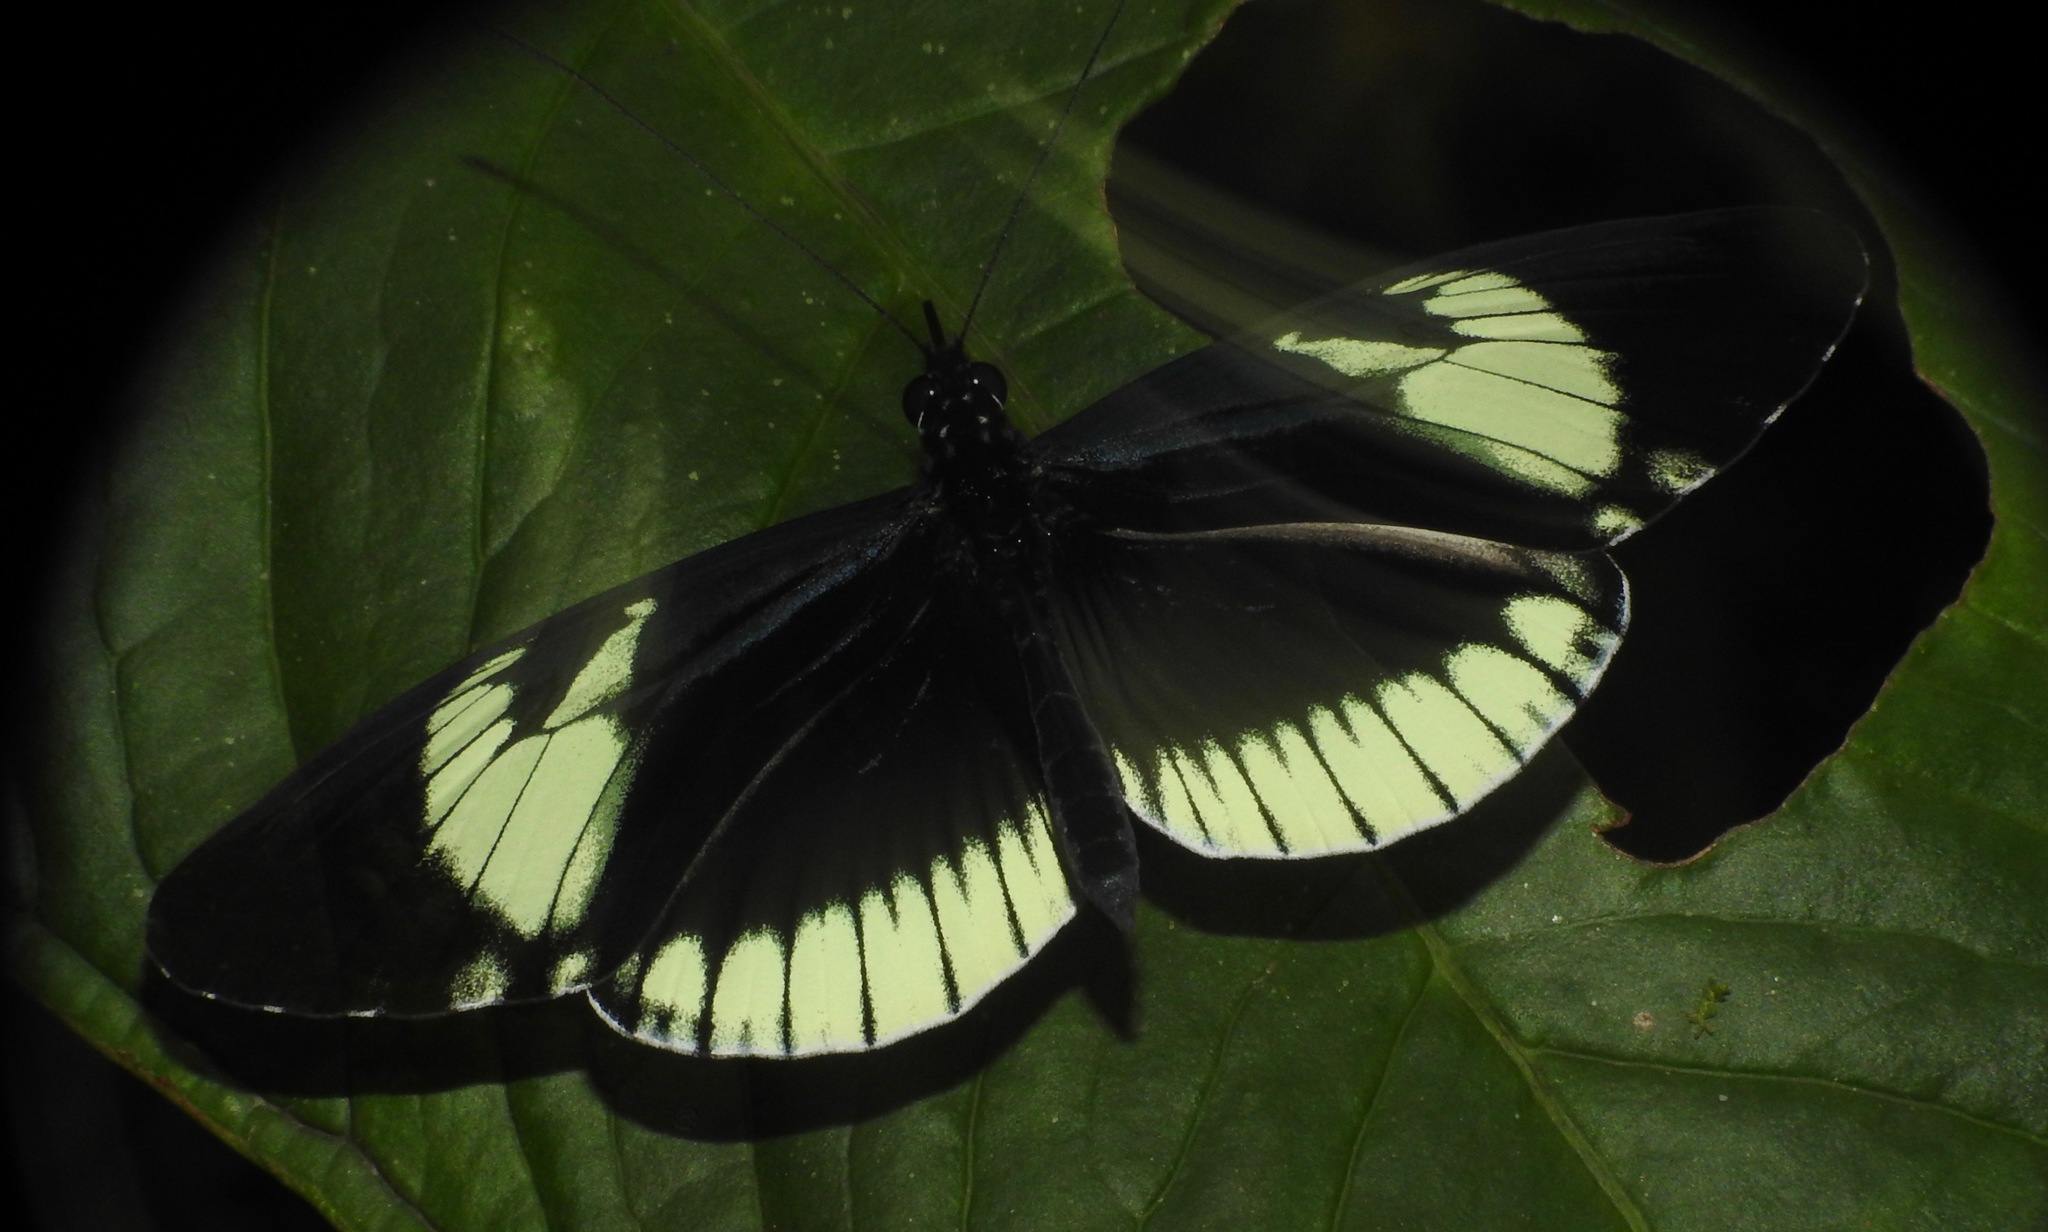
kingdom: Animalia
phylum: Arthropoda
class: Insecta
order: Lepidoptera
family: Nymphalidae
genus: Heliconius
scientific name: Heliconius cydno
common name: Cydno longwing
